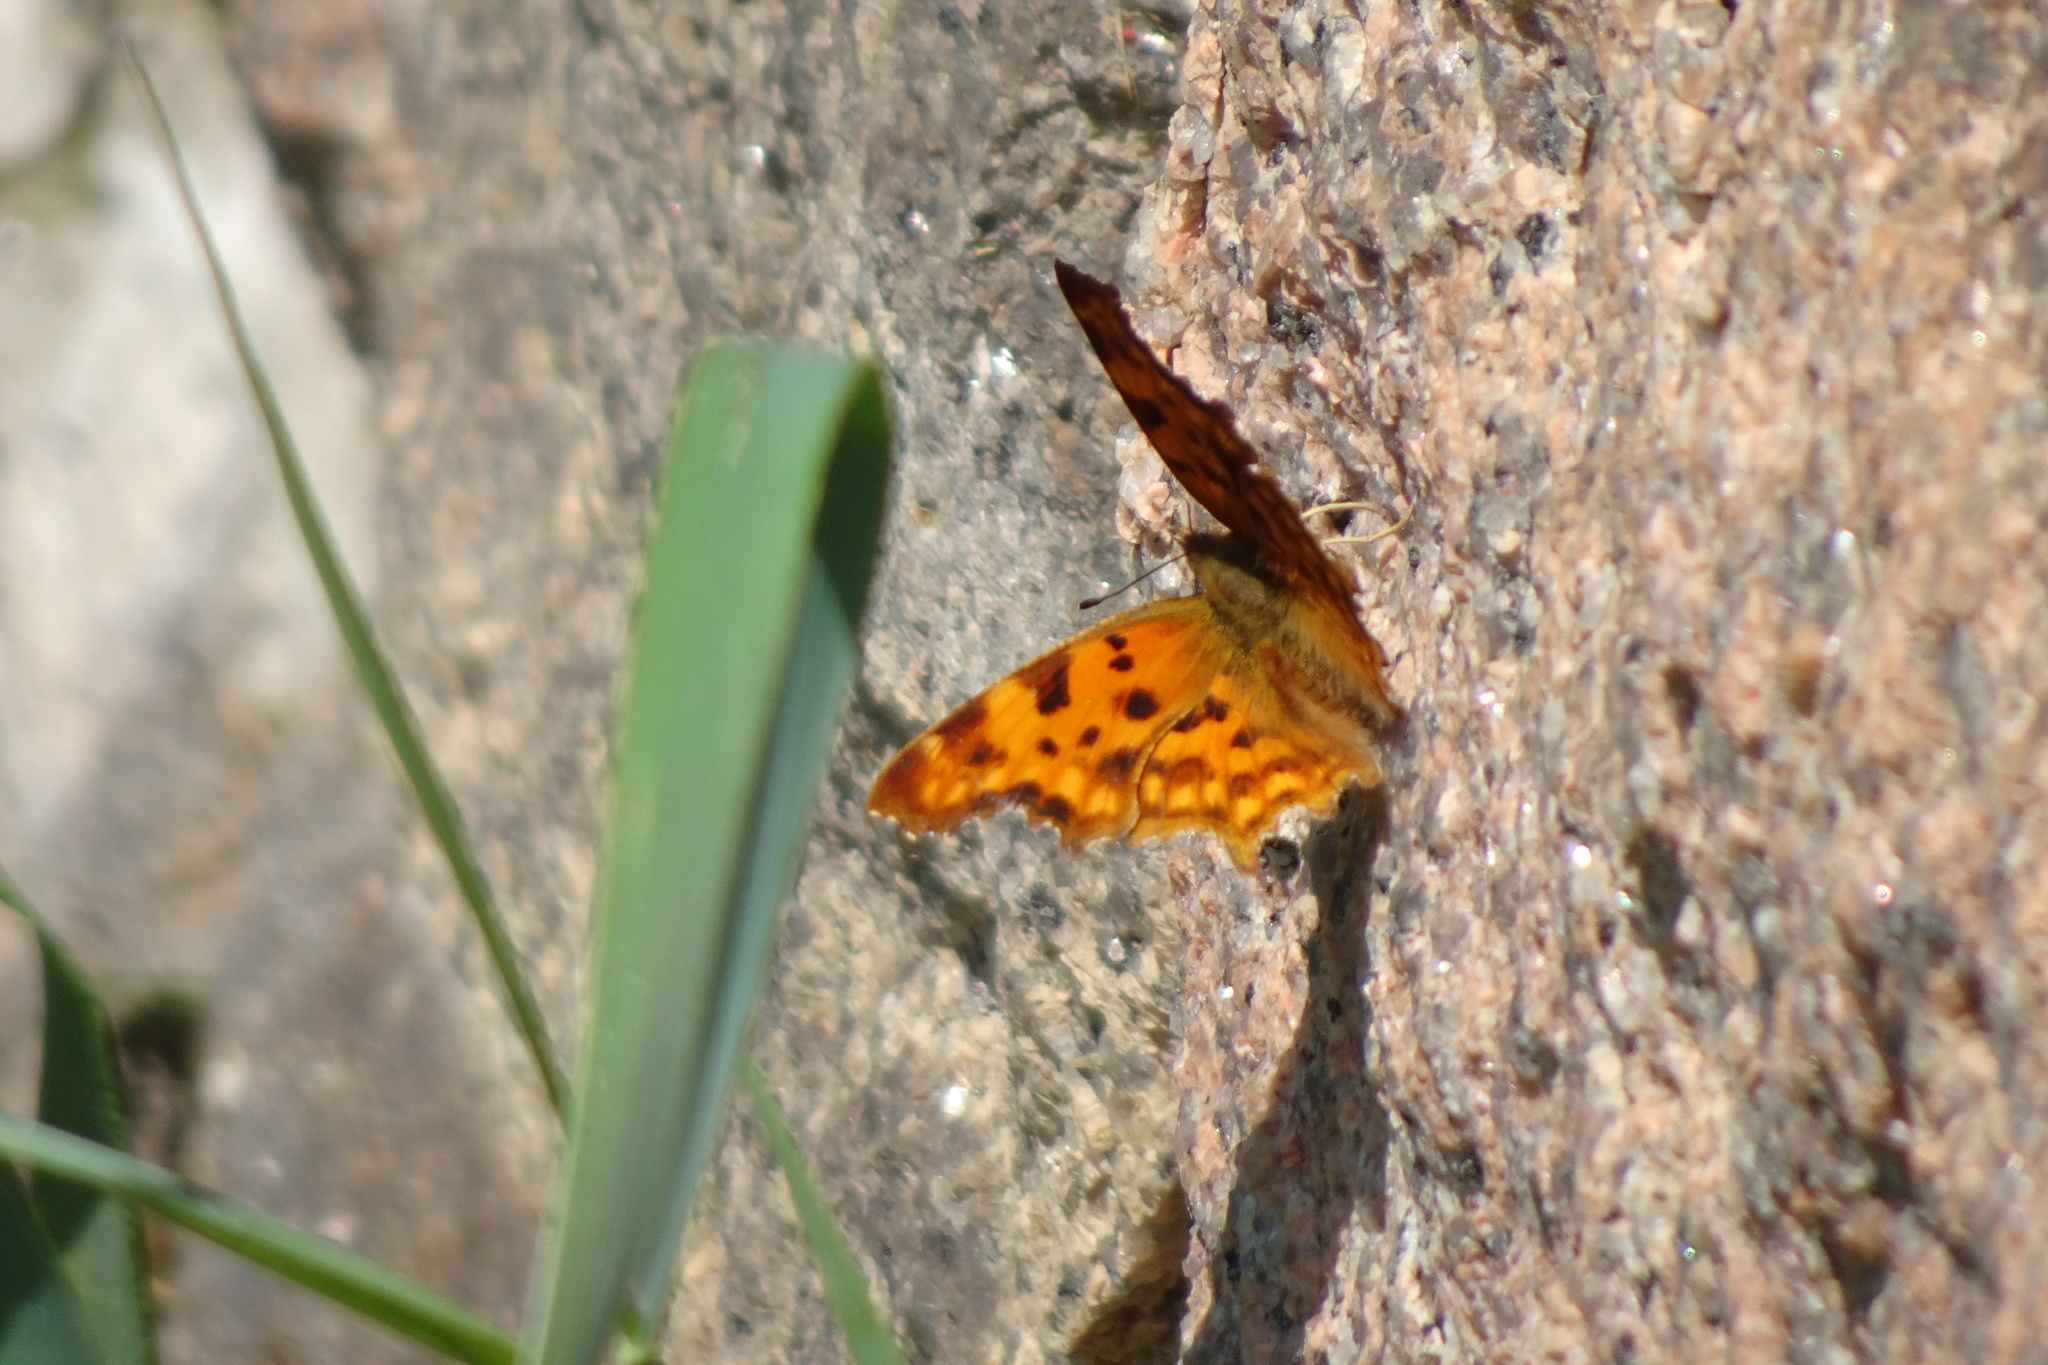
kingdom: Animalia
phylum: Arthropoda
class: Insecta
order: Lepidoptera
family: Nymphalidae
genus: Polygonia
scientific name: Polygonia c-album
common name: Comma
